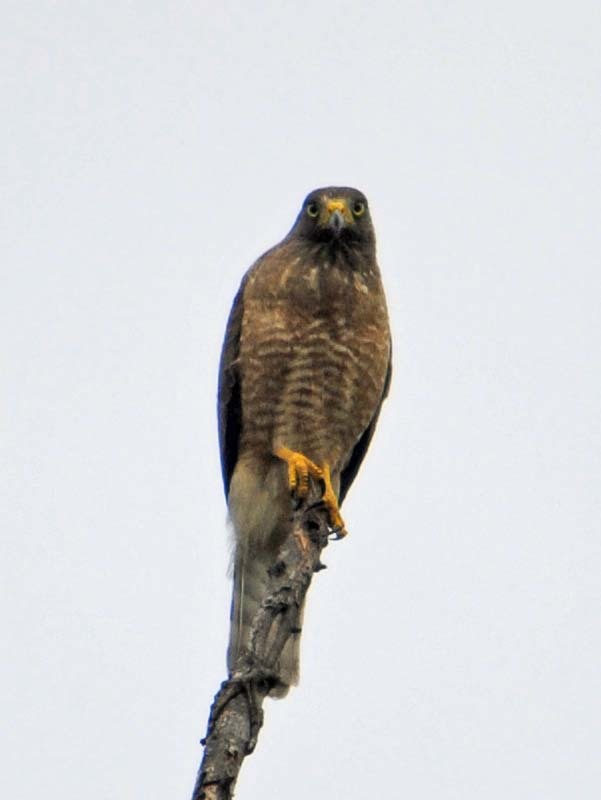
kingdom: Animalia
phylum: Chordata
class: Aves
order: Accipitriformes
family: Accipitridae
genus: Rupornis
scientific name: Rupornis magnirostris
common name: Roadside hawk
